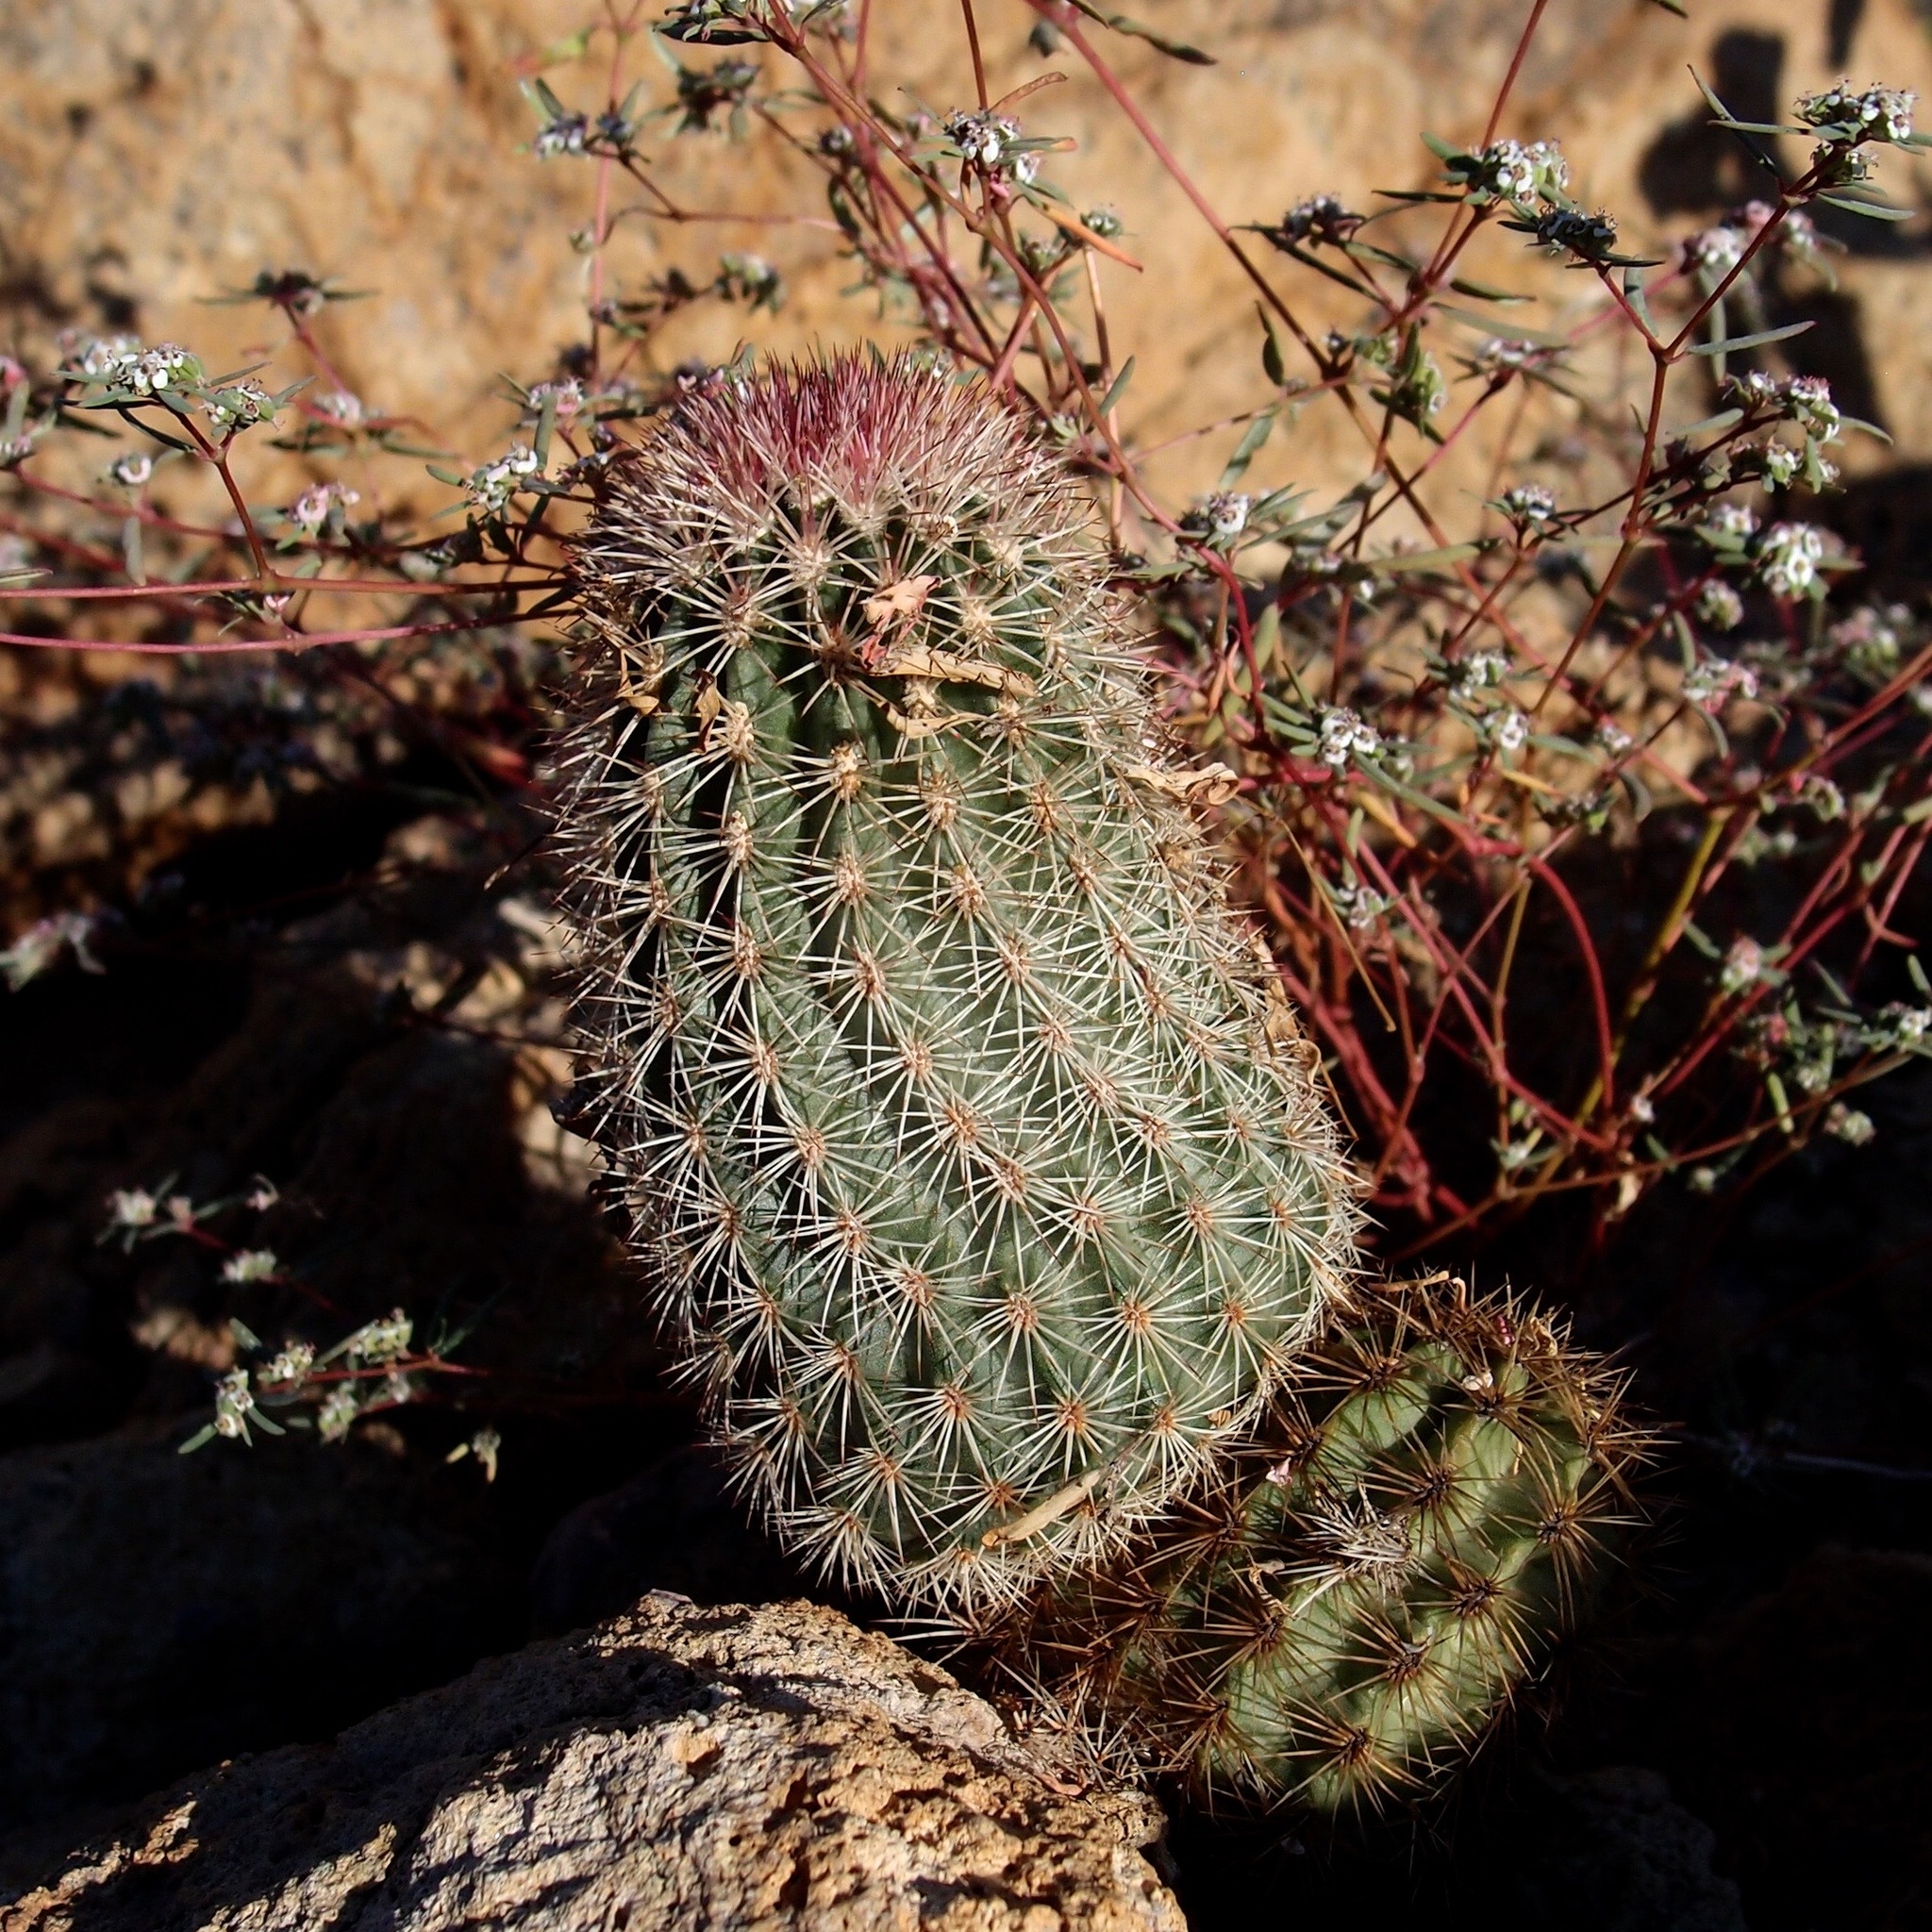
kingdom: Plantae
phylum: Tracheophyta
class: Magnoliopsida
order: Caryophyllales
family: Cactaceae
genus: Echinocereus
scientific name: Echinocereus scopulorum
